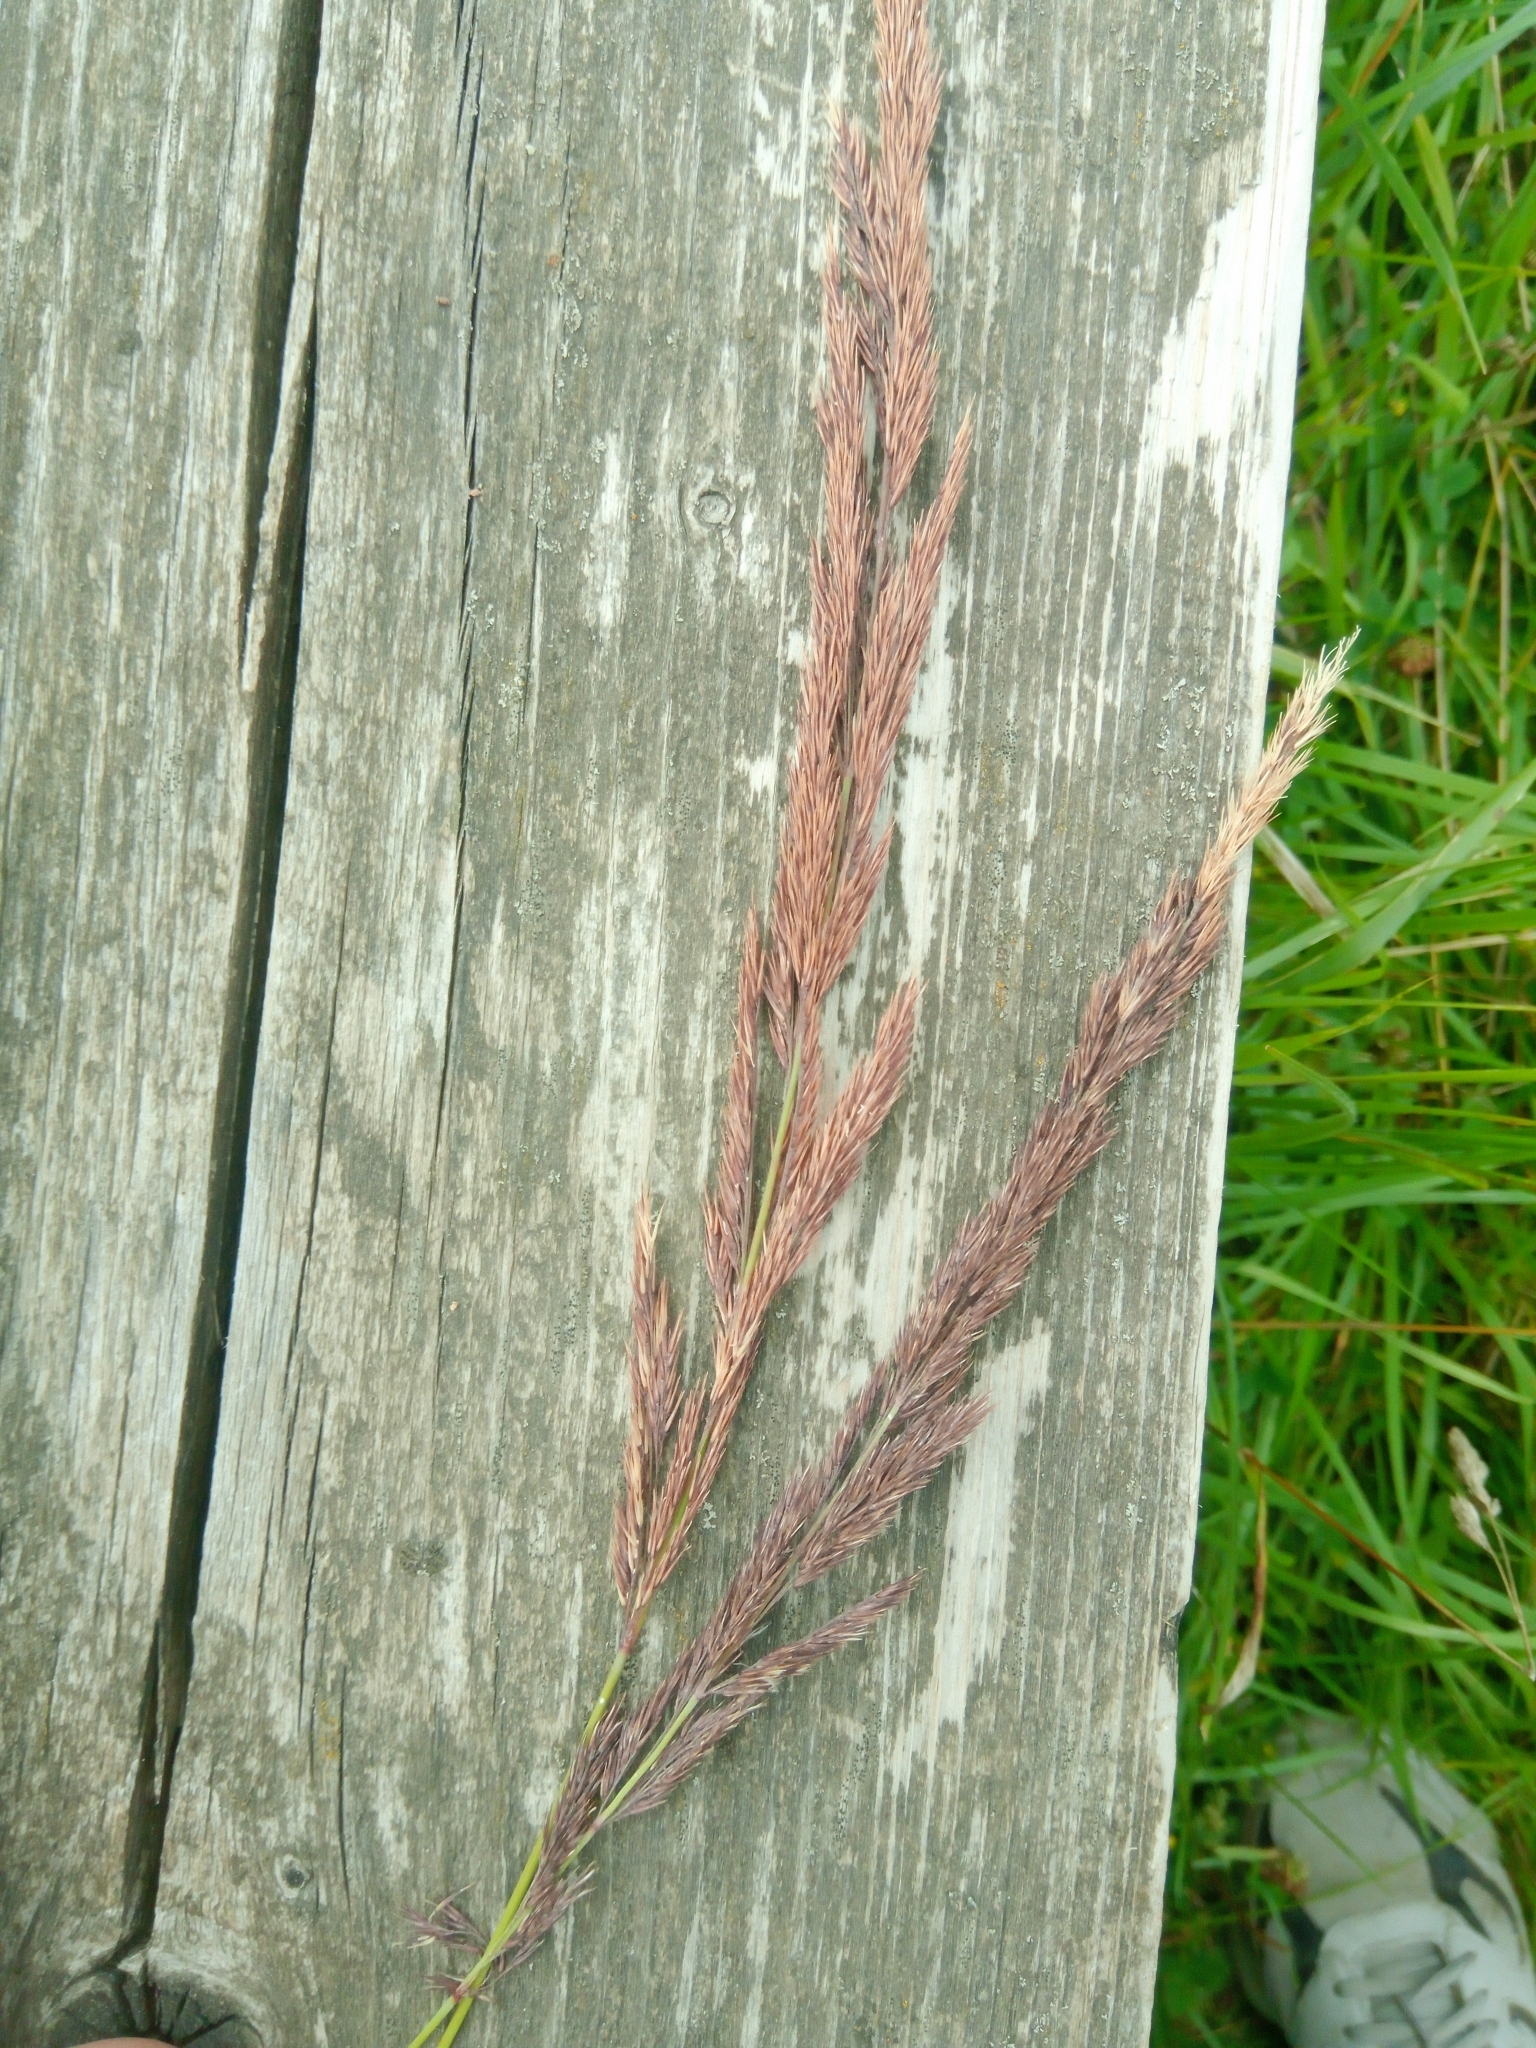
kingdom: Plantae
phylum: Tracheophyta
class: Liliopsida
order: Poales
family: Poaceae
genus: Calamagrostis
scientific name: Calamagrostis epigejos
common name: Wood small-reed
